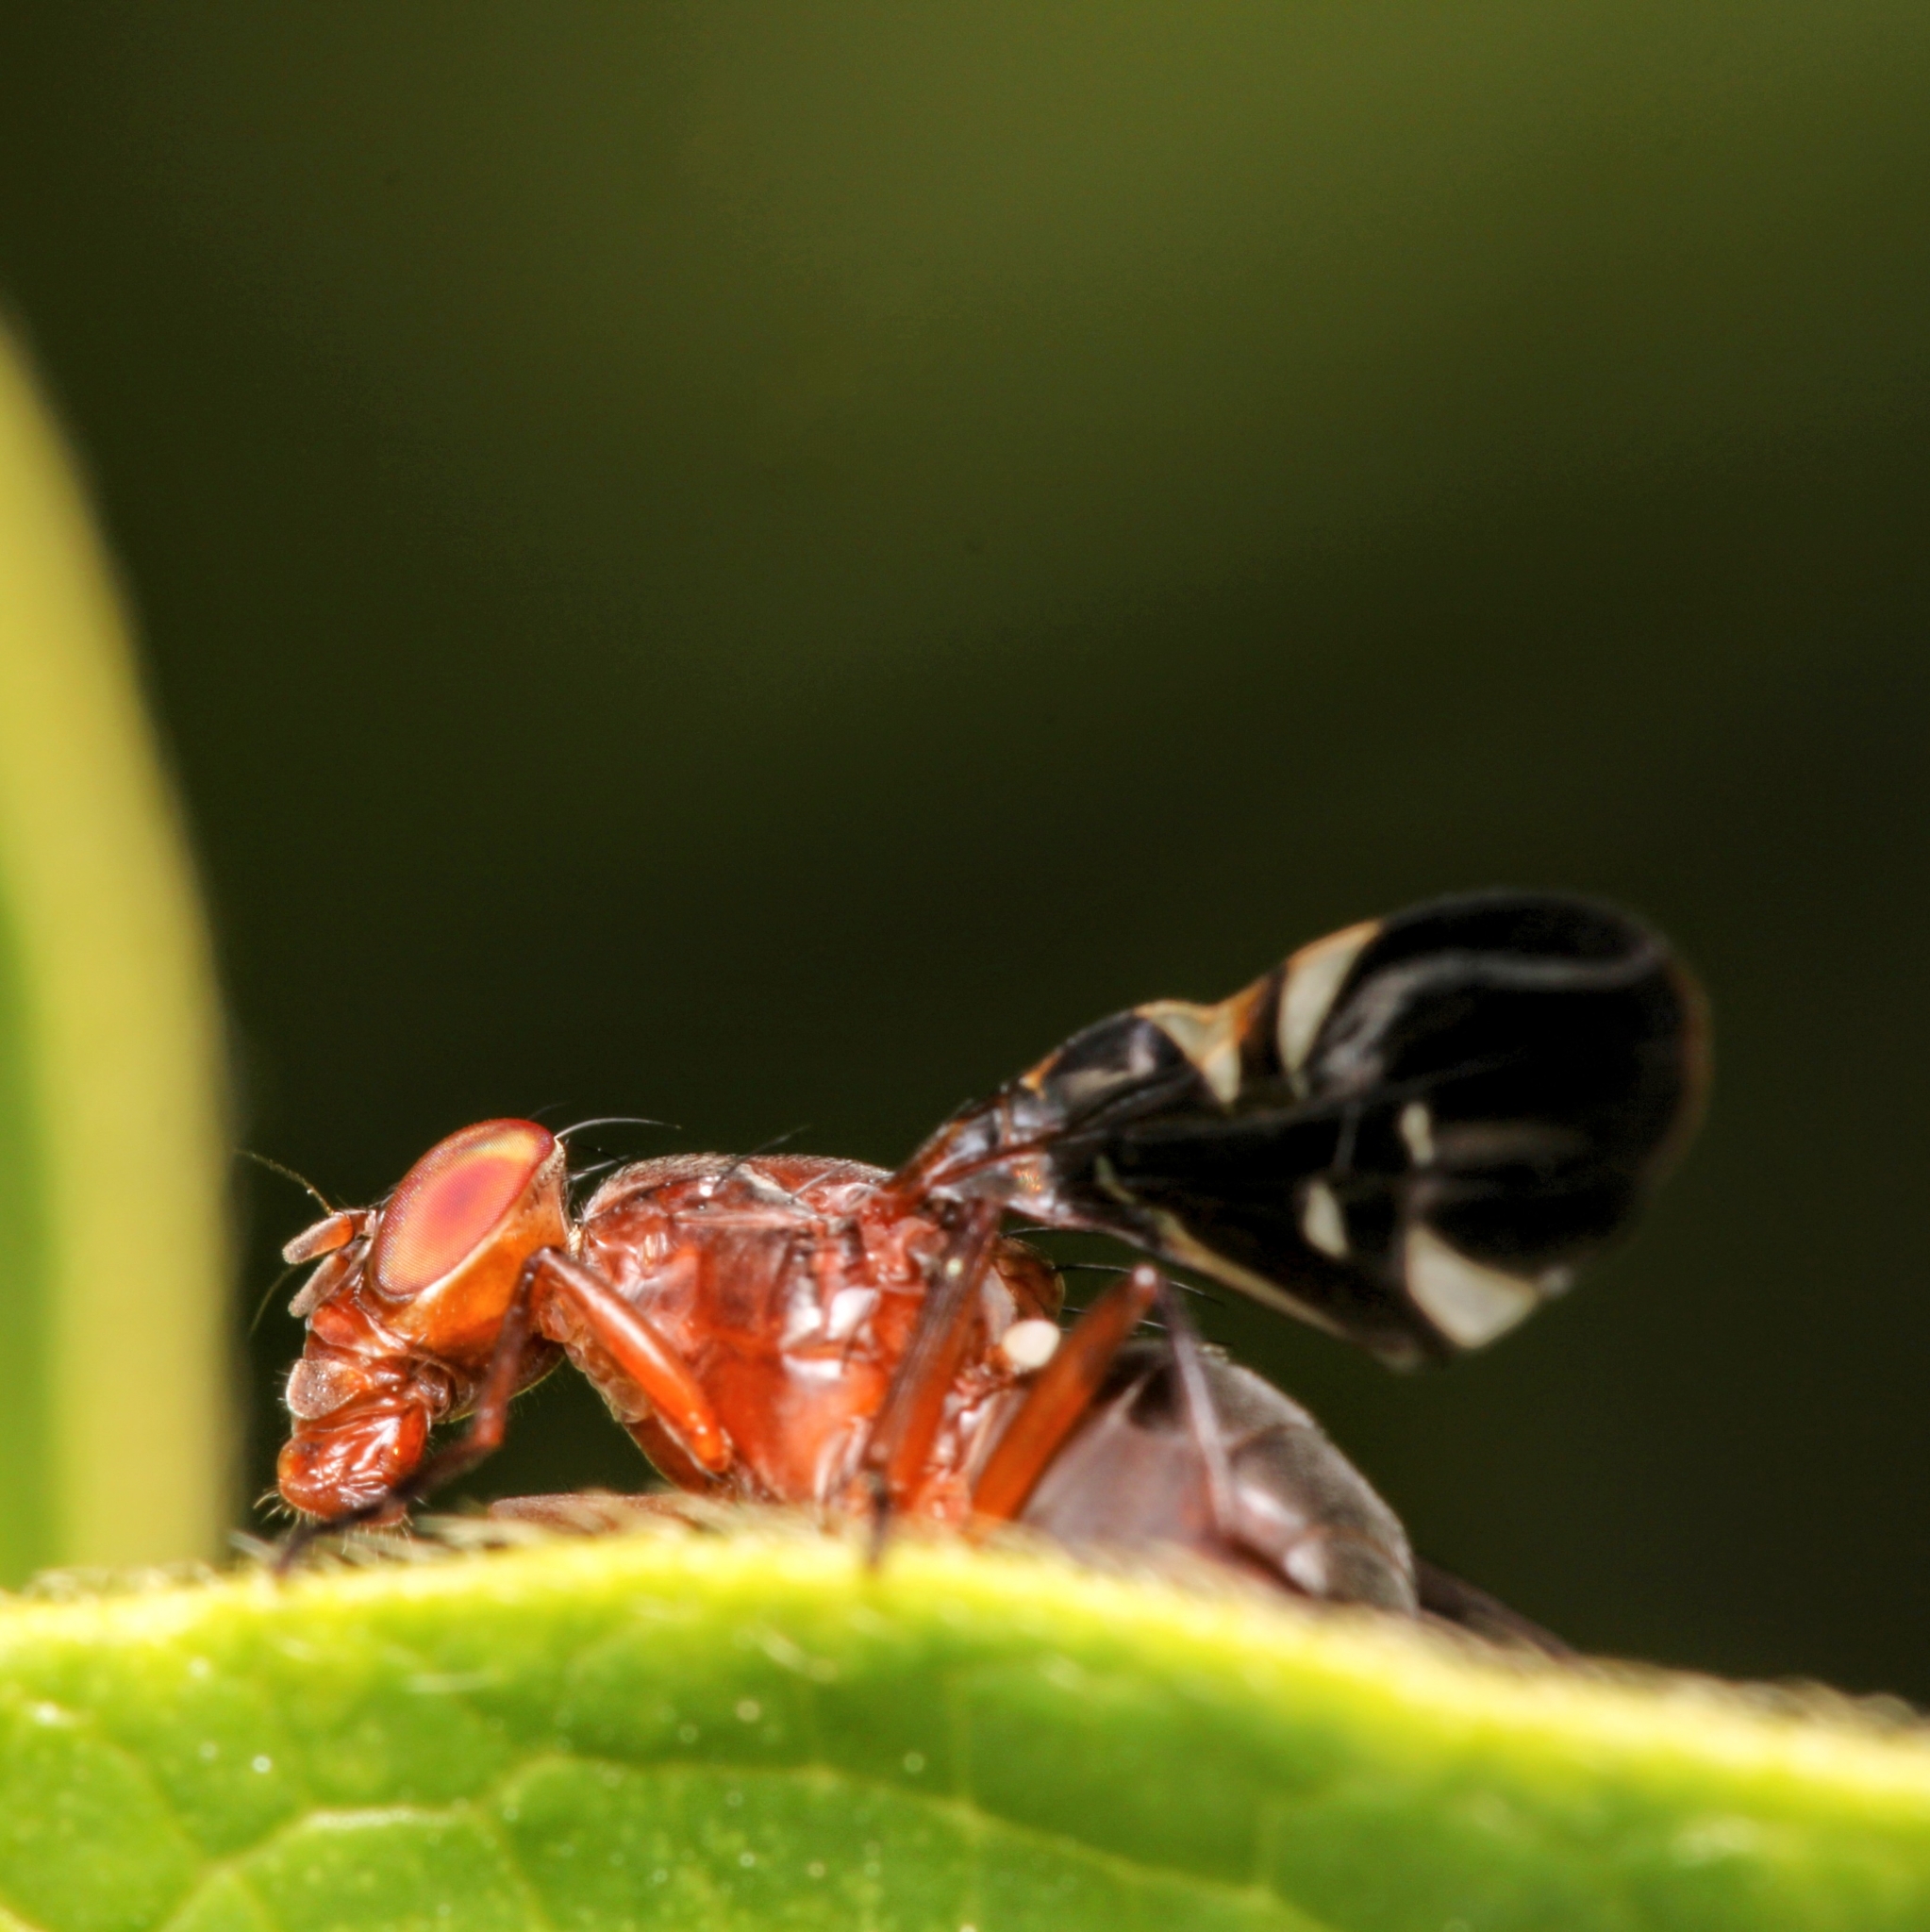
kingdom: Animalia
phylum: Arthropoda
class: Insecta
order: Diptera
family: Ulidiidae
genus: Delphinia
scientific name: Delphinia picta
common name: Common picture-winged fly
